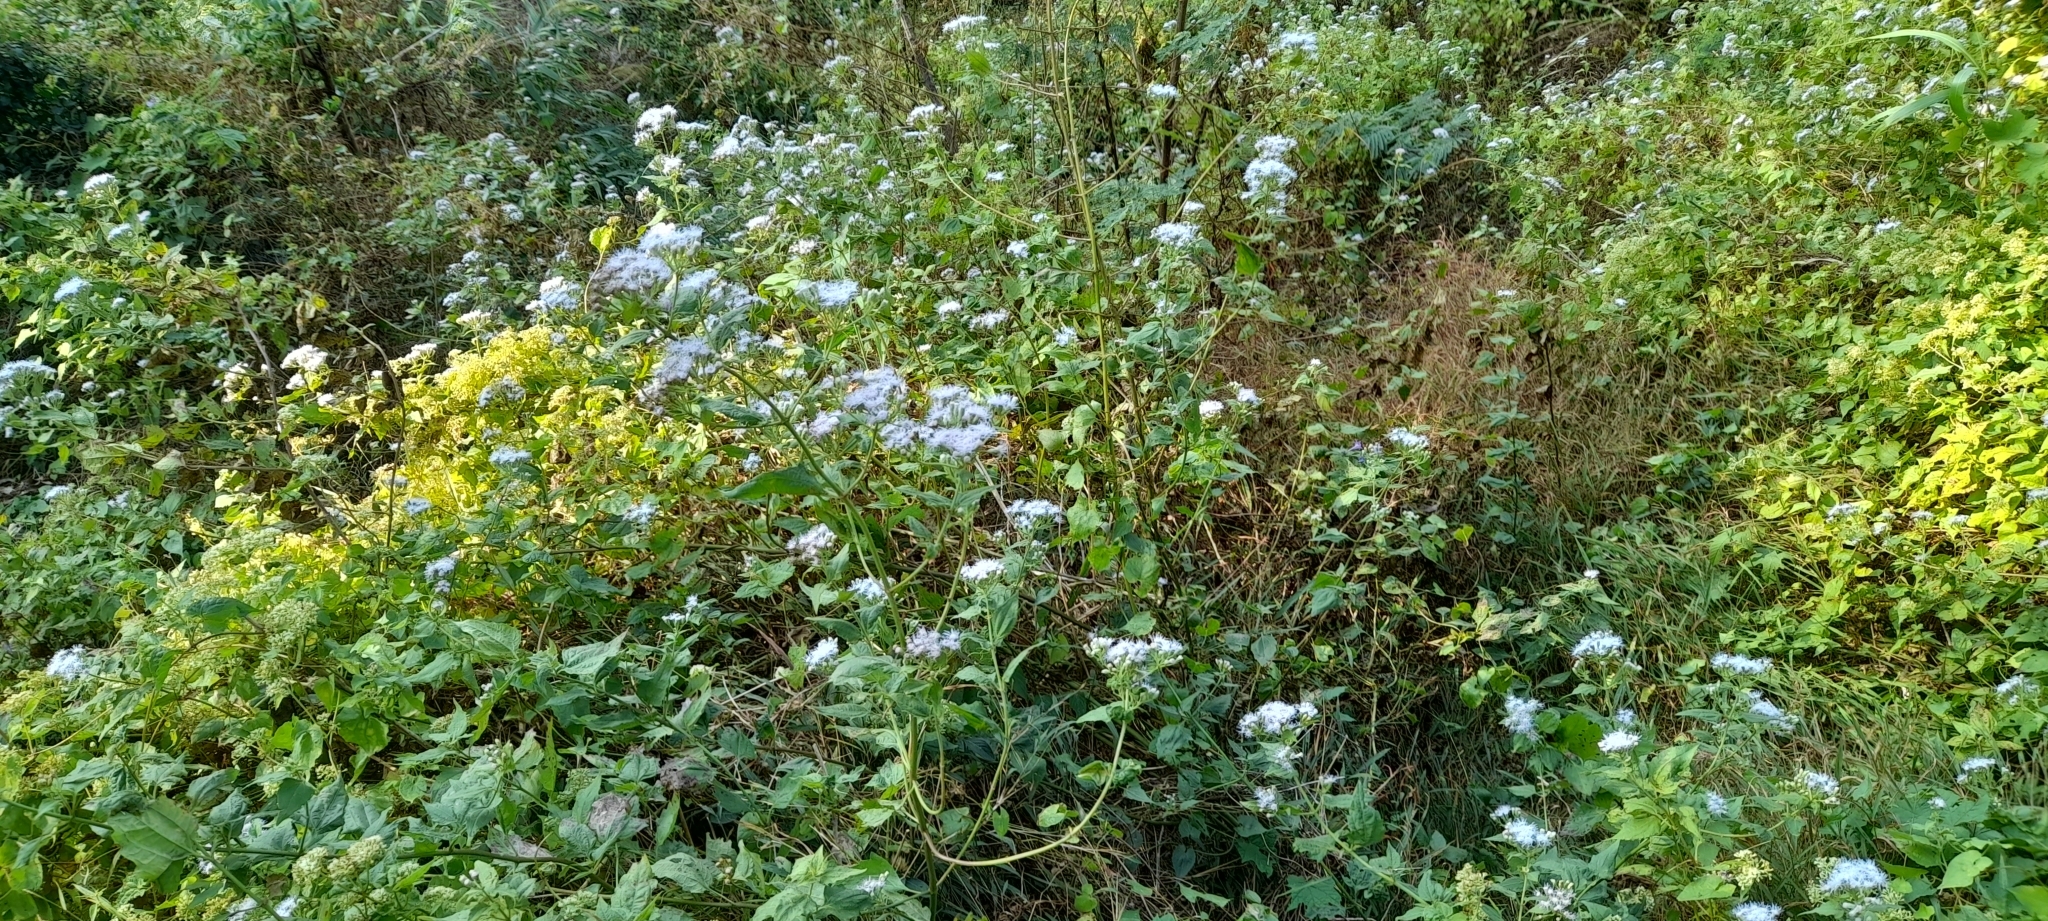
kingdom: Plantae
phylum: Tracheophyta
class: Magnoliopsida
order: Asterales
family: Asteraceae
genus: Chromolaena
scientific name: Chromolaena odorata
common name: Siamweed
